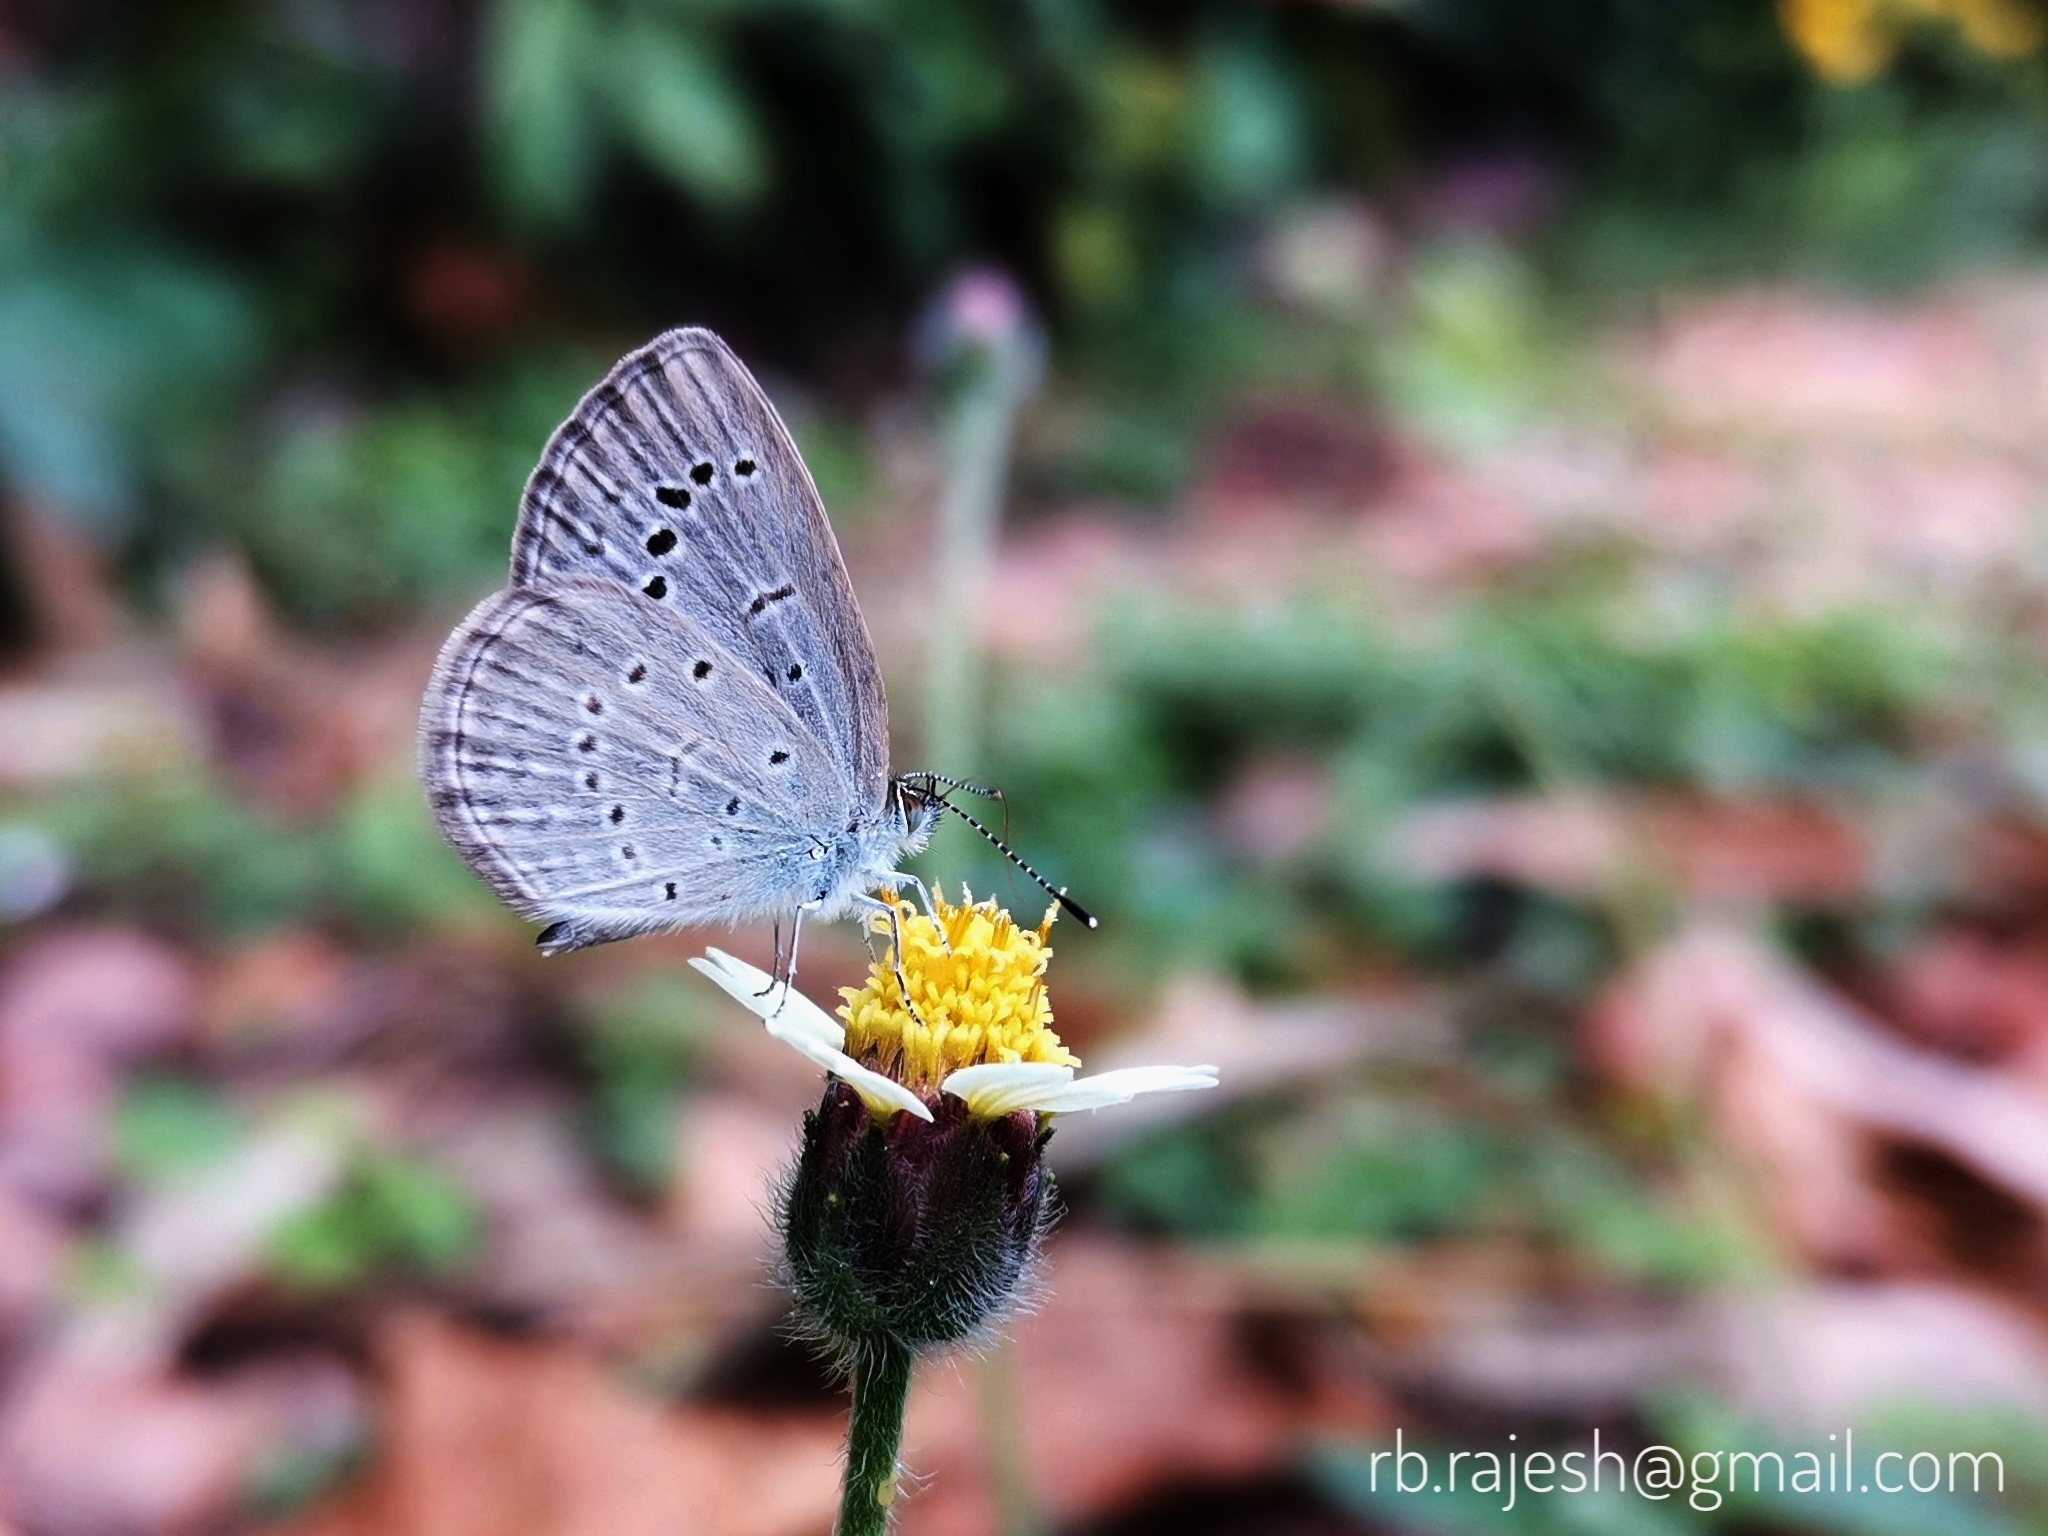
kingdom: Animalia
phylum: Arthropoda
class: Insecta
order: Lepidoptera
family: Lycaenidae
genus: Pseudozizeeria
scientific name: Pseudozizeeria maha
